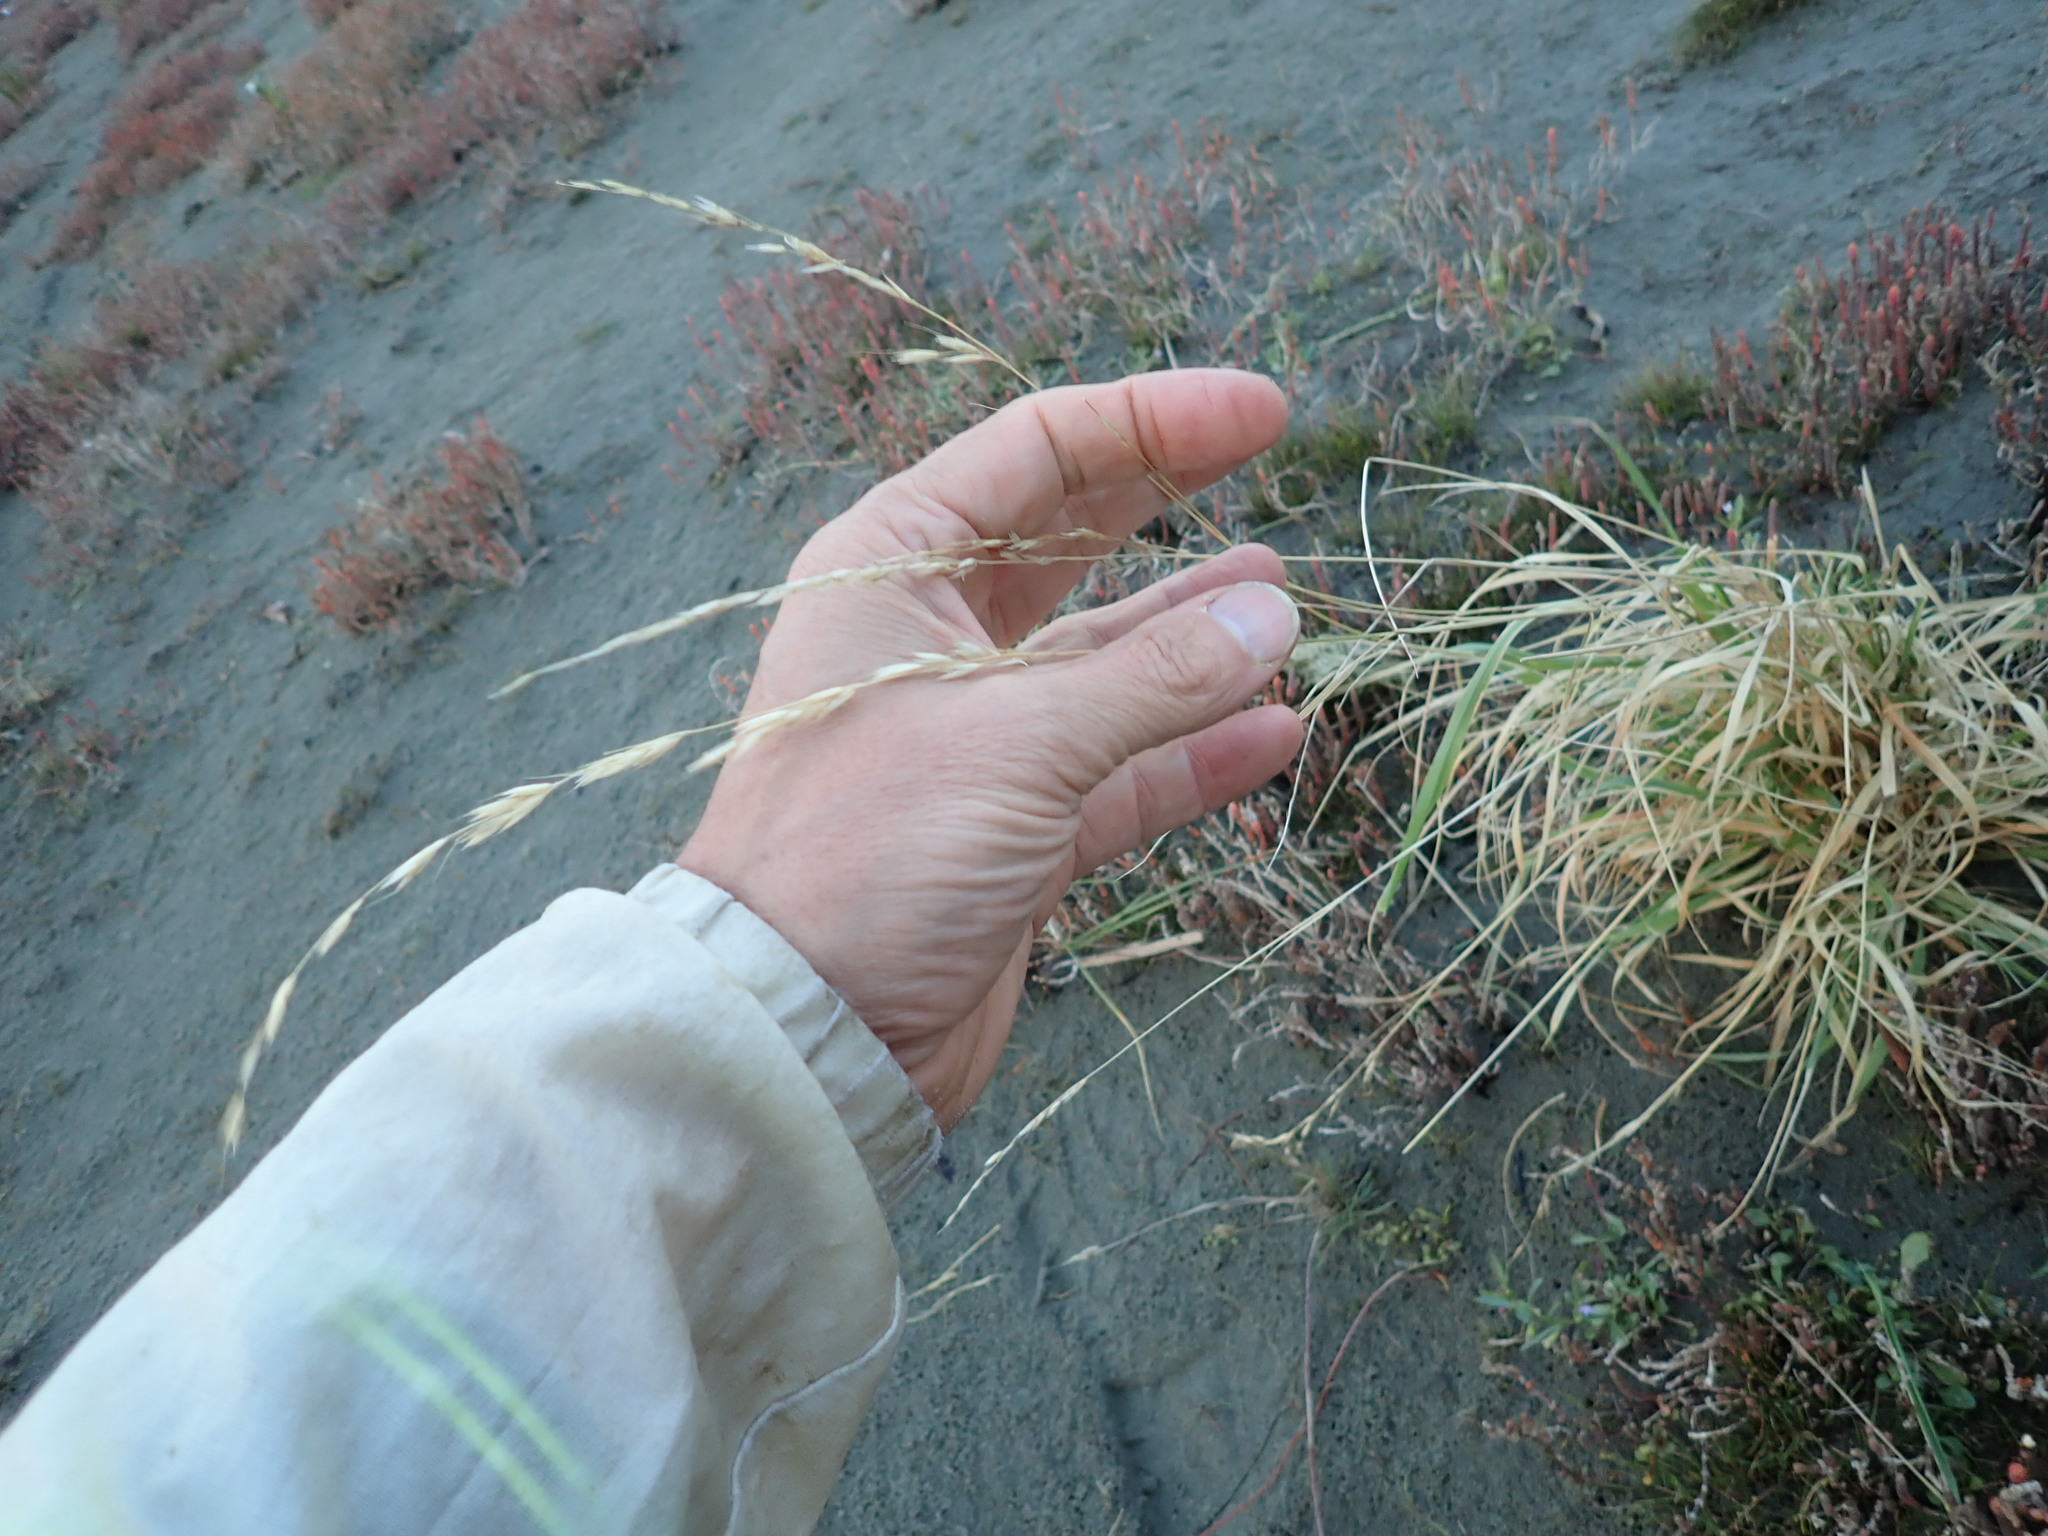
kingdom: Plantae
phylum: Tracheophyta
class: Liliopsida
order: Poales
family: Poaceae
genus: Lolium
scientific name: Lolium arundinaceum
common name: Reed fescue
